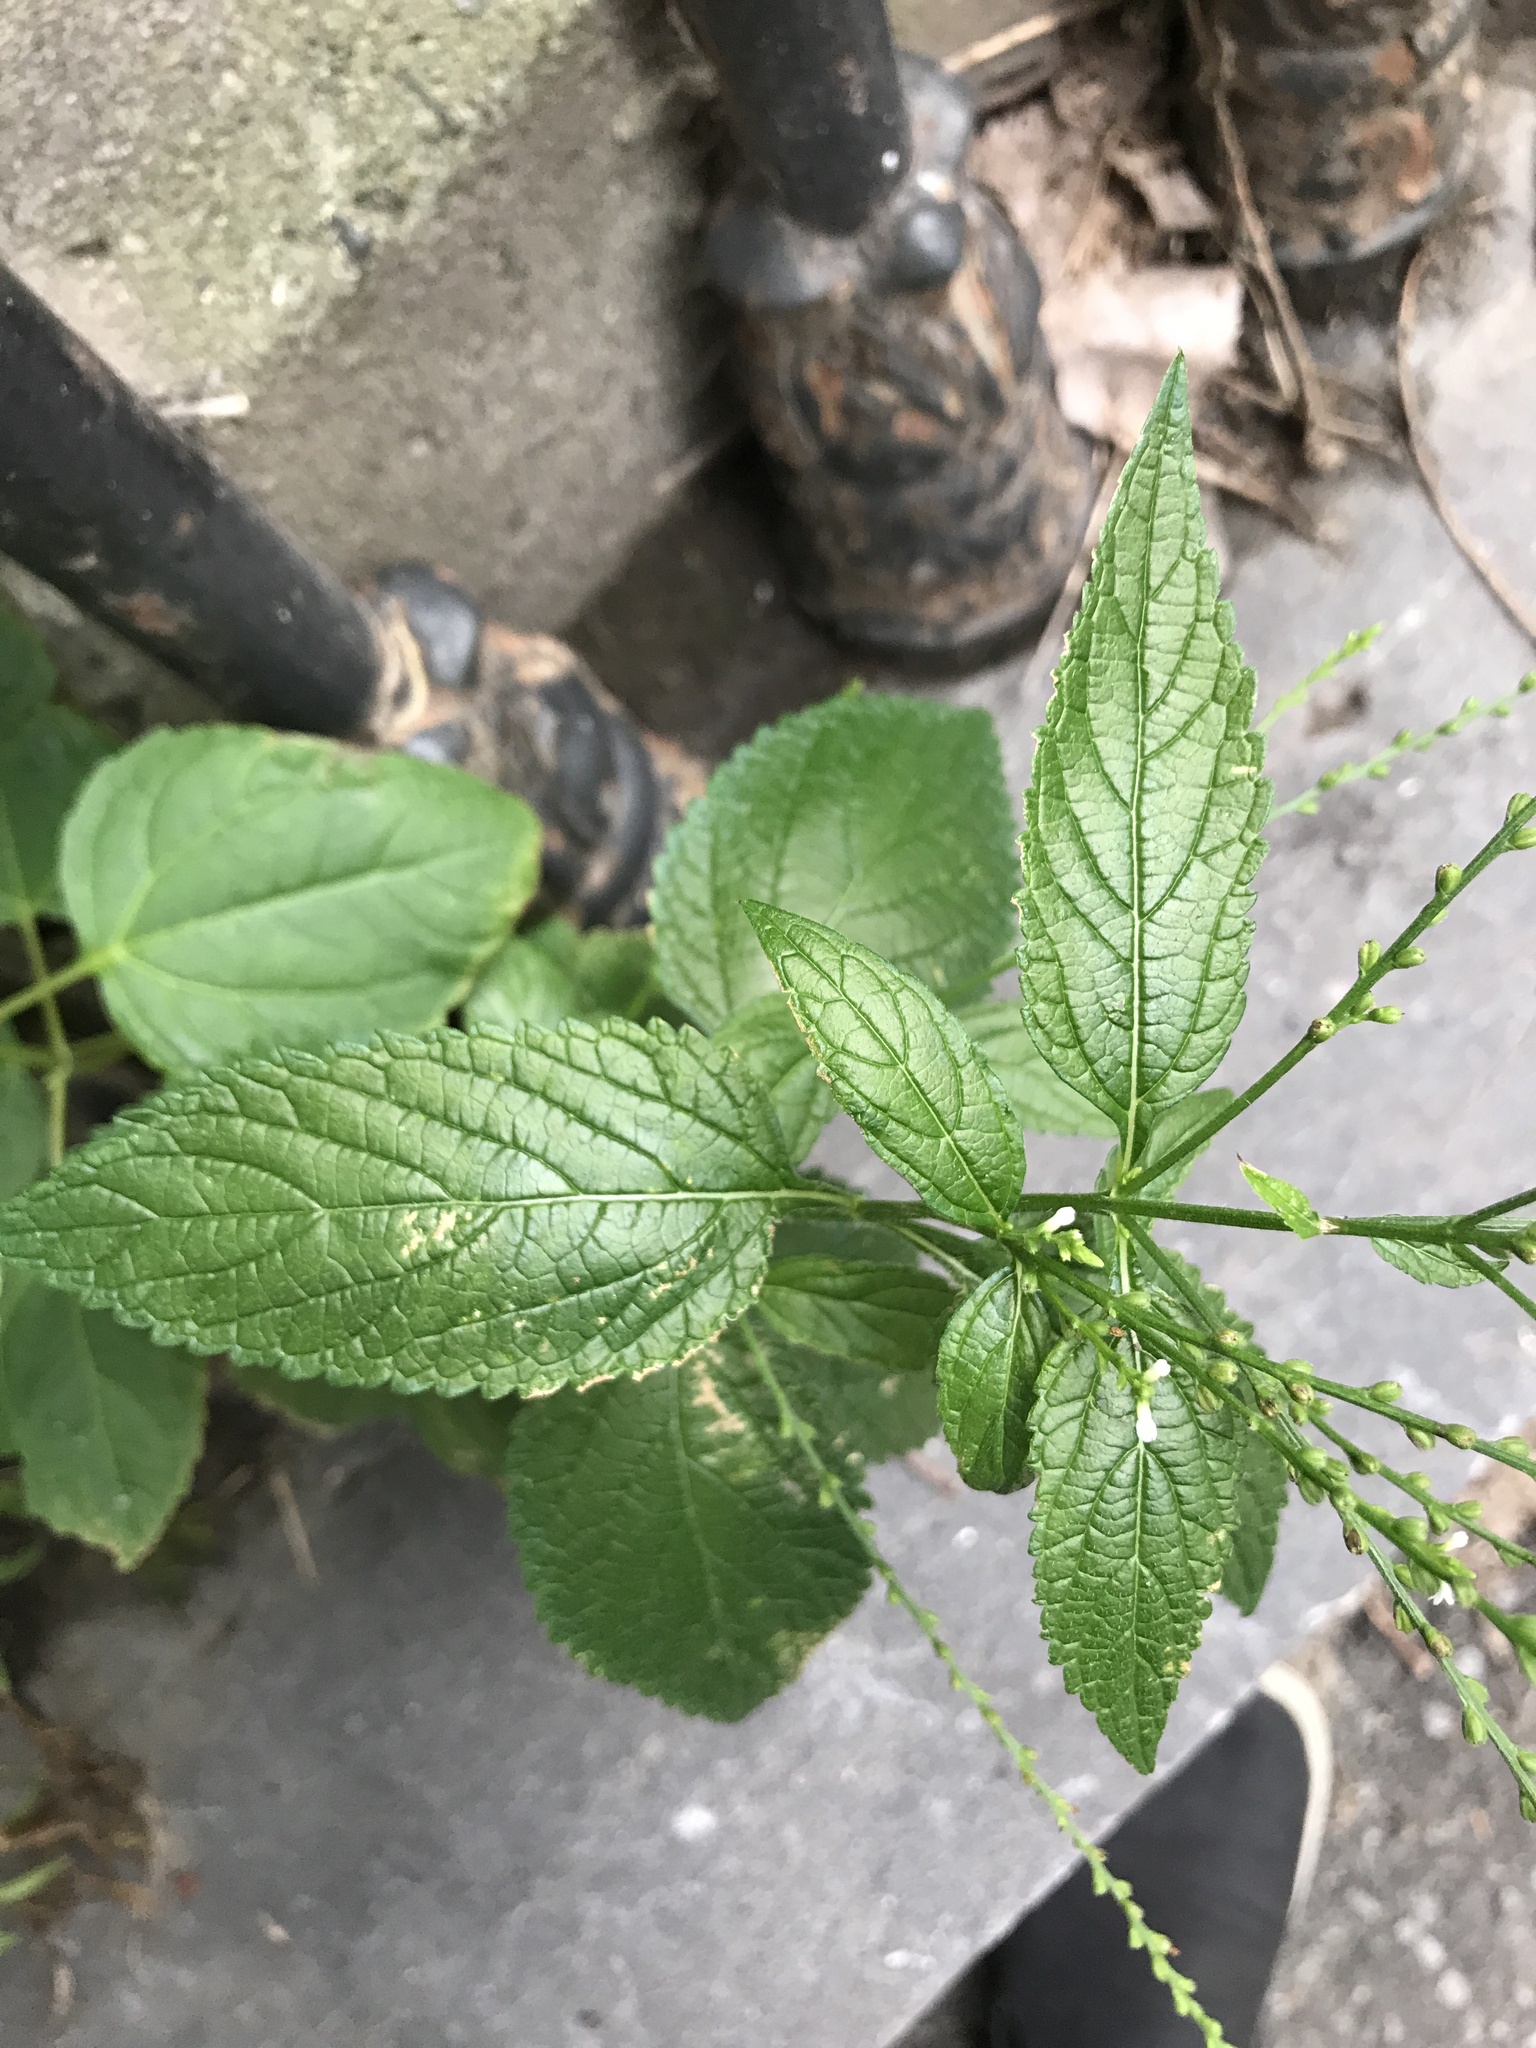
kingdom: Plantae
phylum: Tracheophyta
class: Magnoliopsida
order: Lamiales
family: Verbenaceae
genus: Verbena
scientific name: Verbena urticifolia
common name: Nettle-leaved vervain
